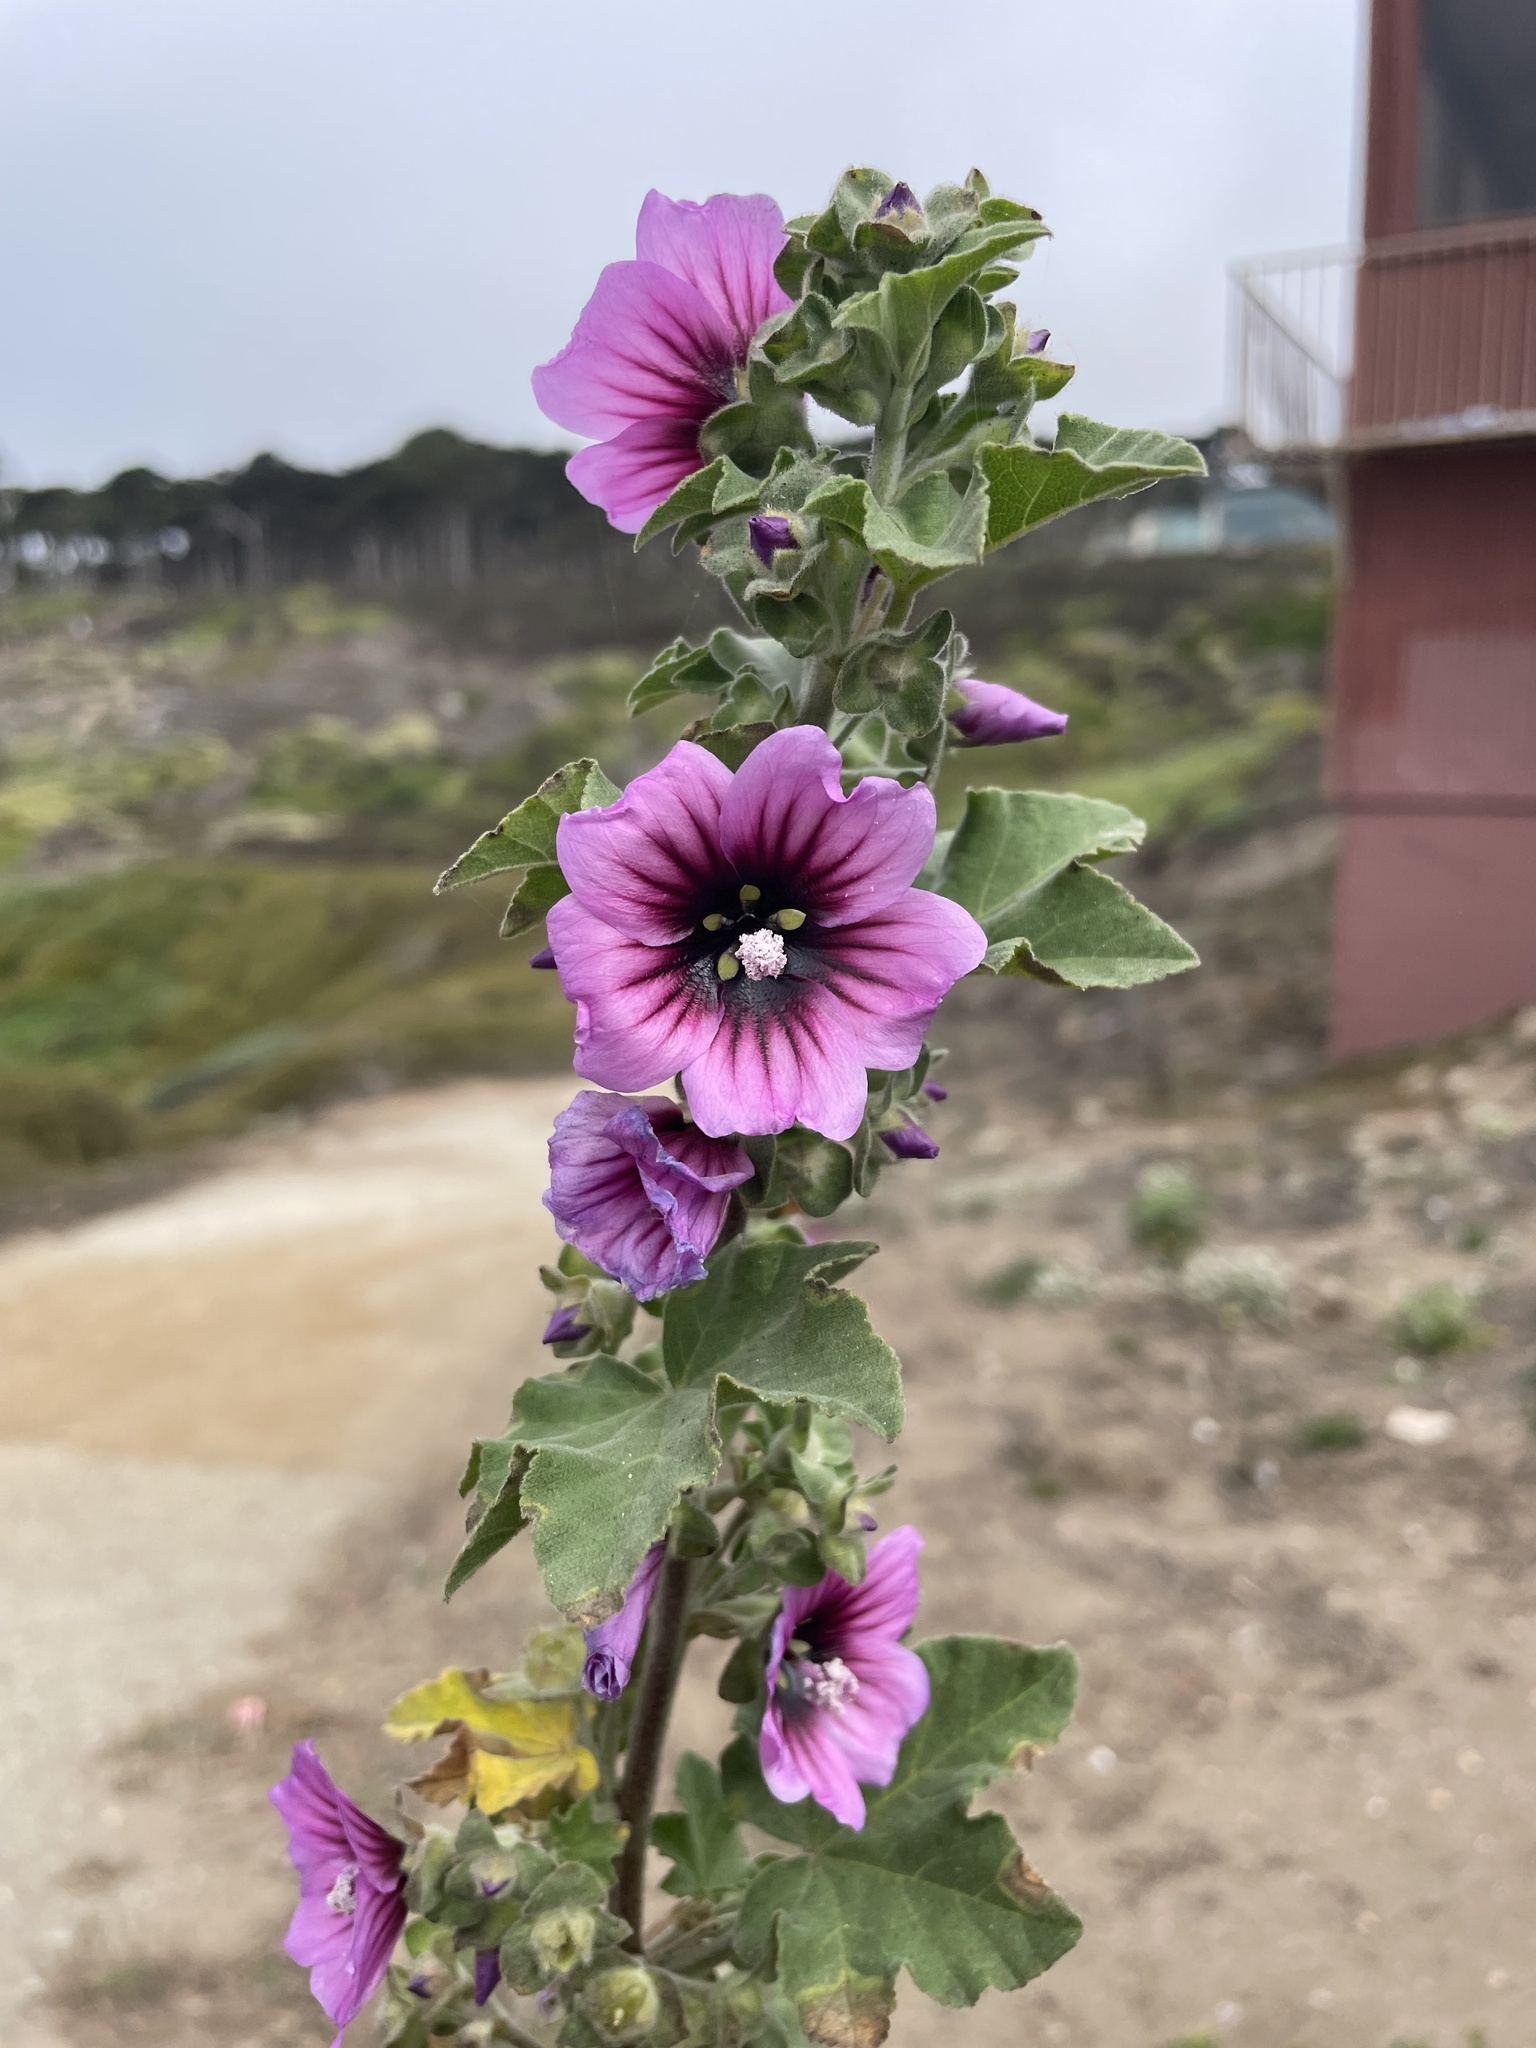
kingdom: Plantae
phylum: Tracheophyta
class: Magnoliopsida
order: Malvales
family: Malvaceae
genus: Malva
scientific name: Malva arborea
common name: Tree mallow
